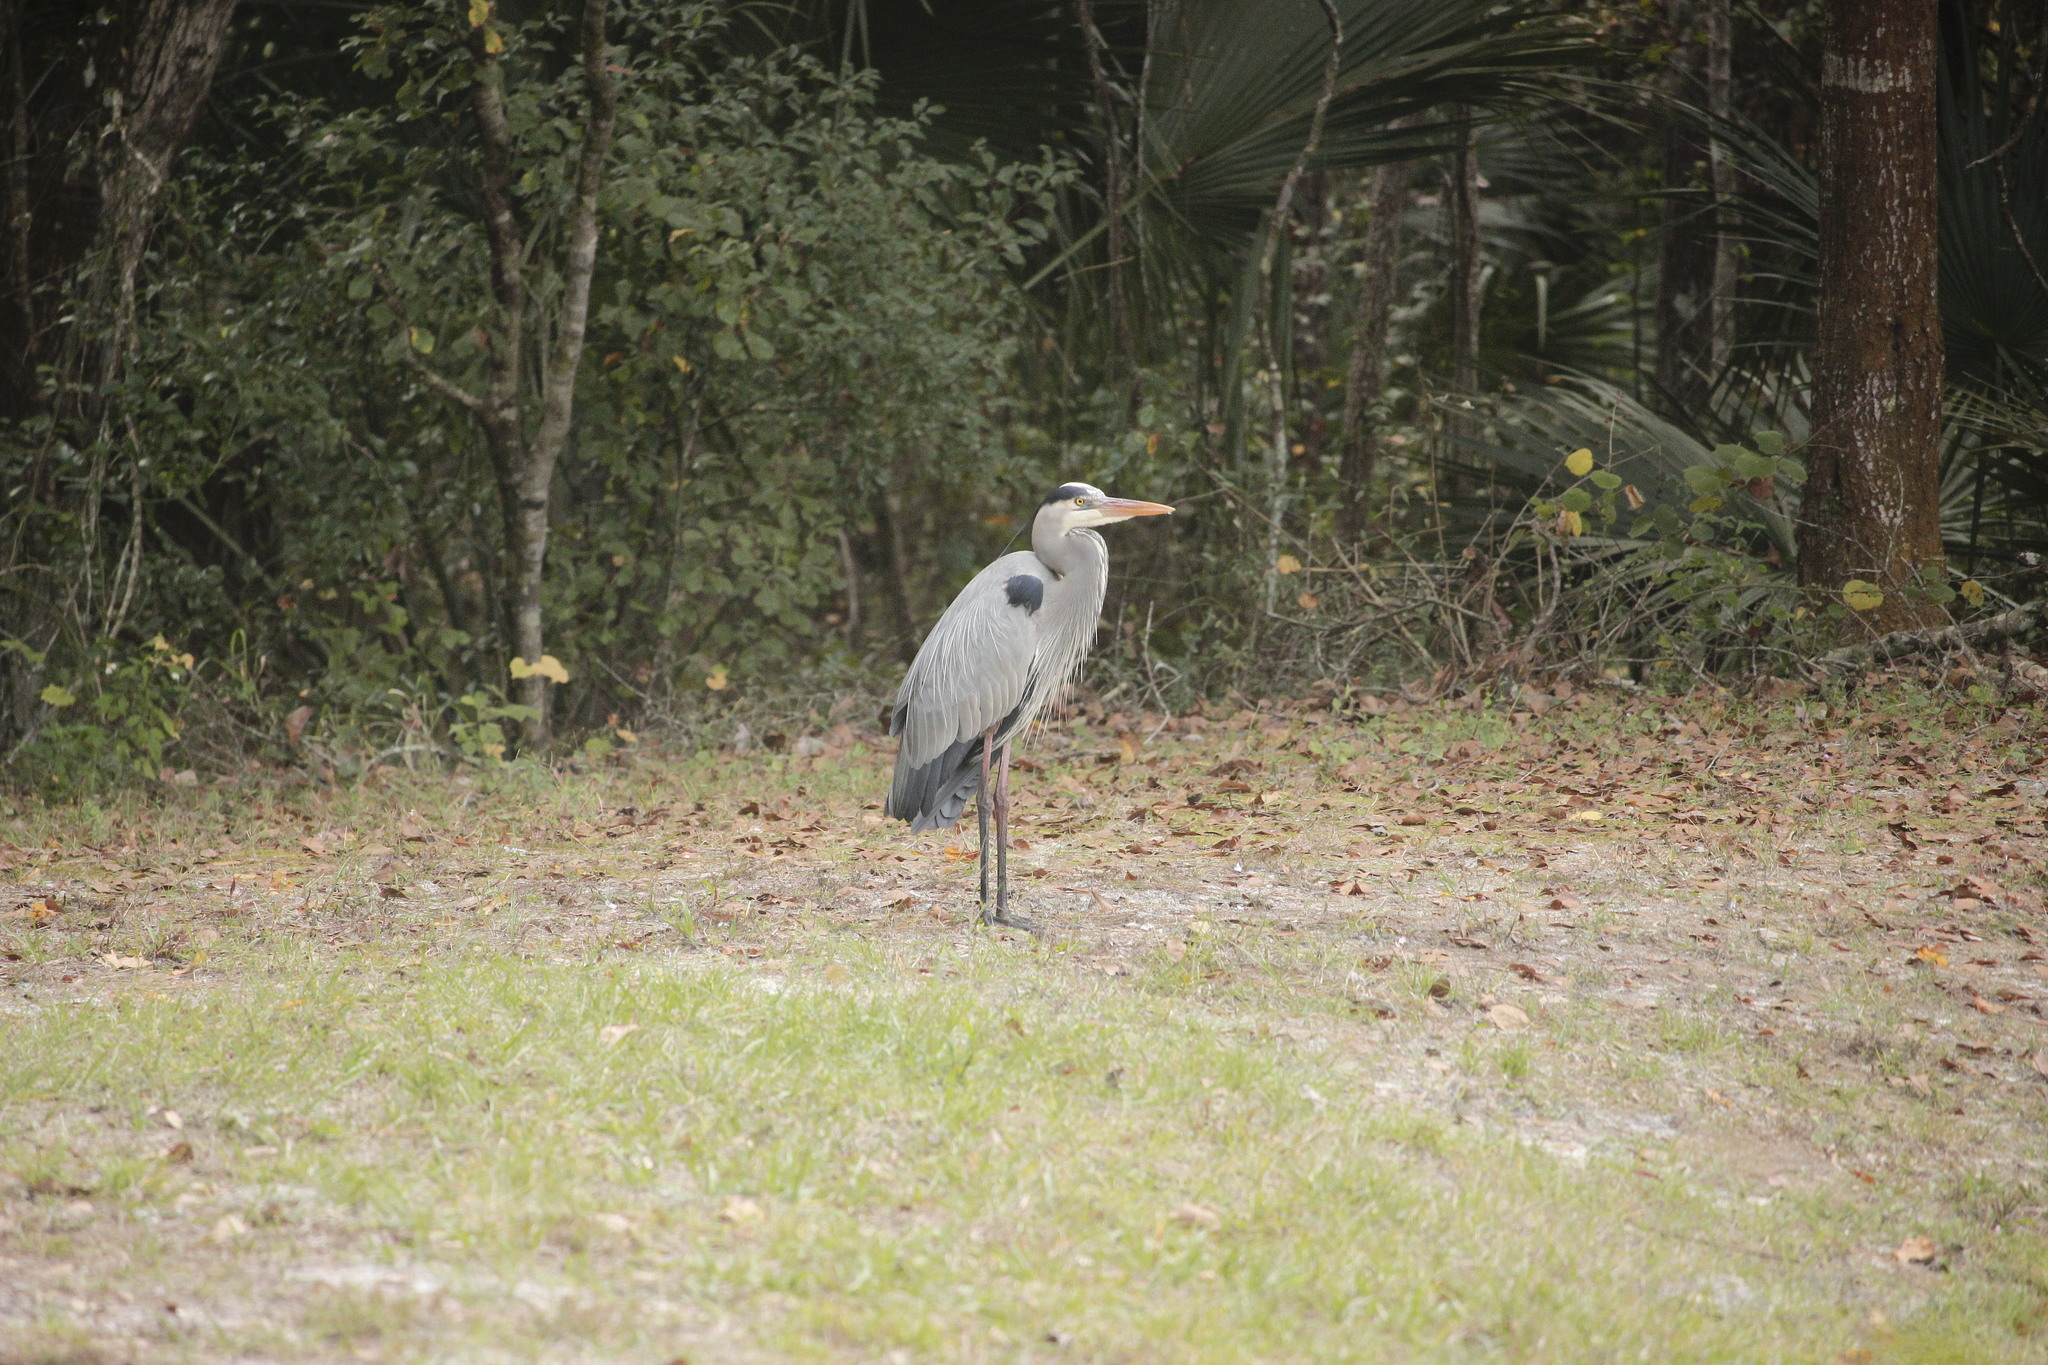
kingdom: Animalia
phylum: Chordata
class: Aves
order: Pelecaniformes
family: Ardeidae
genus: Ardea
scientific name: Ardea herodias
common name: Great blue heron
